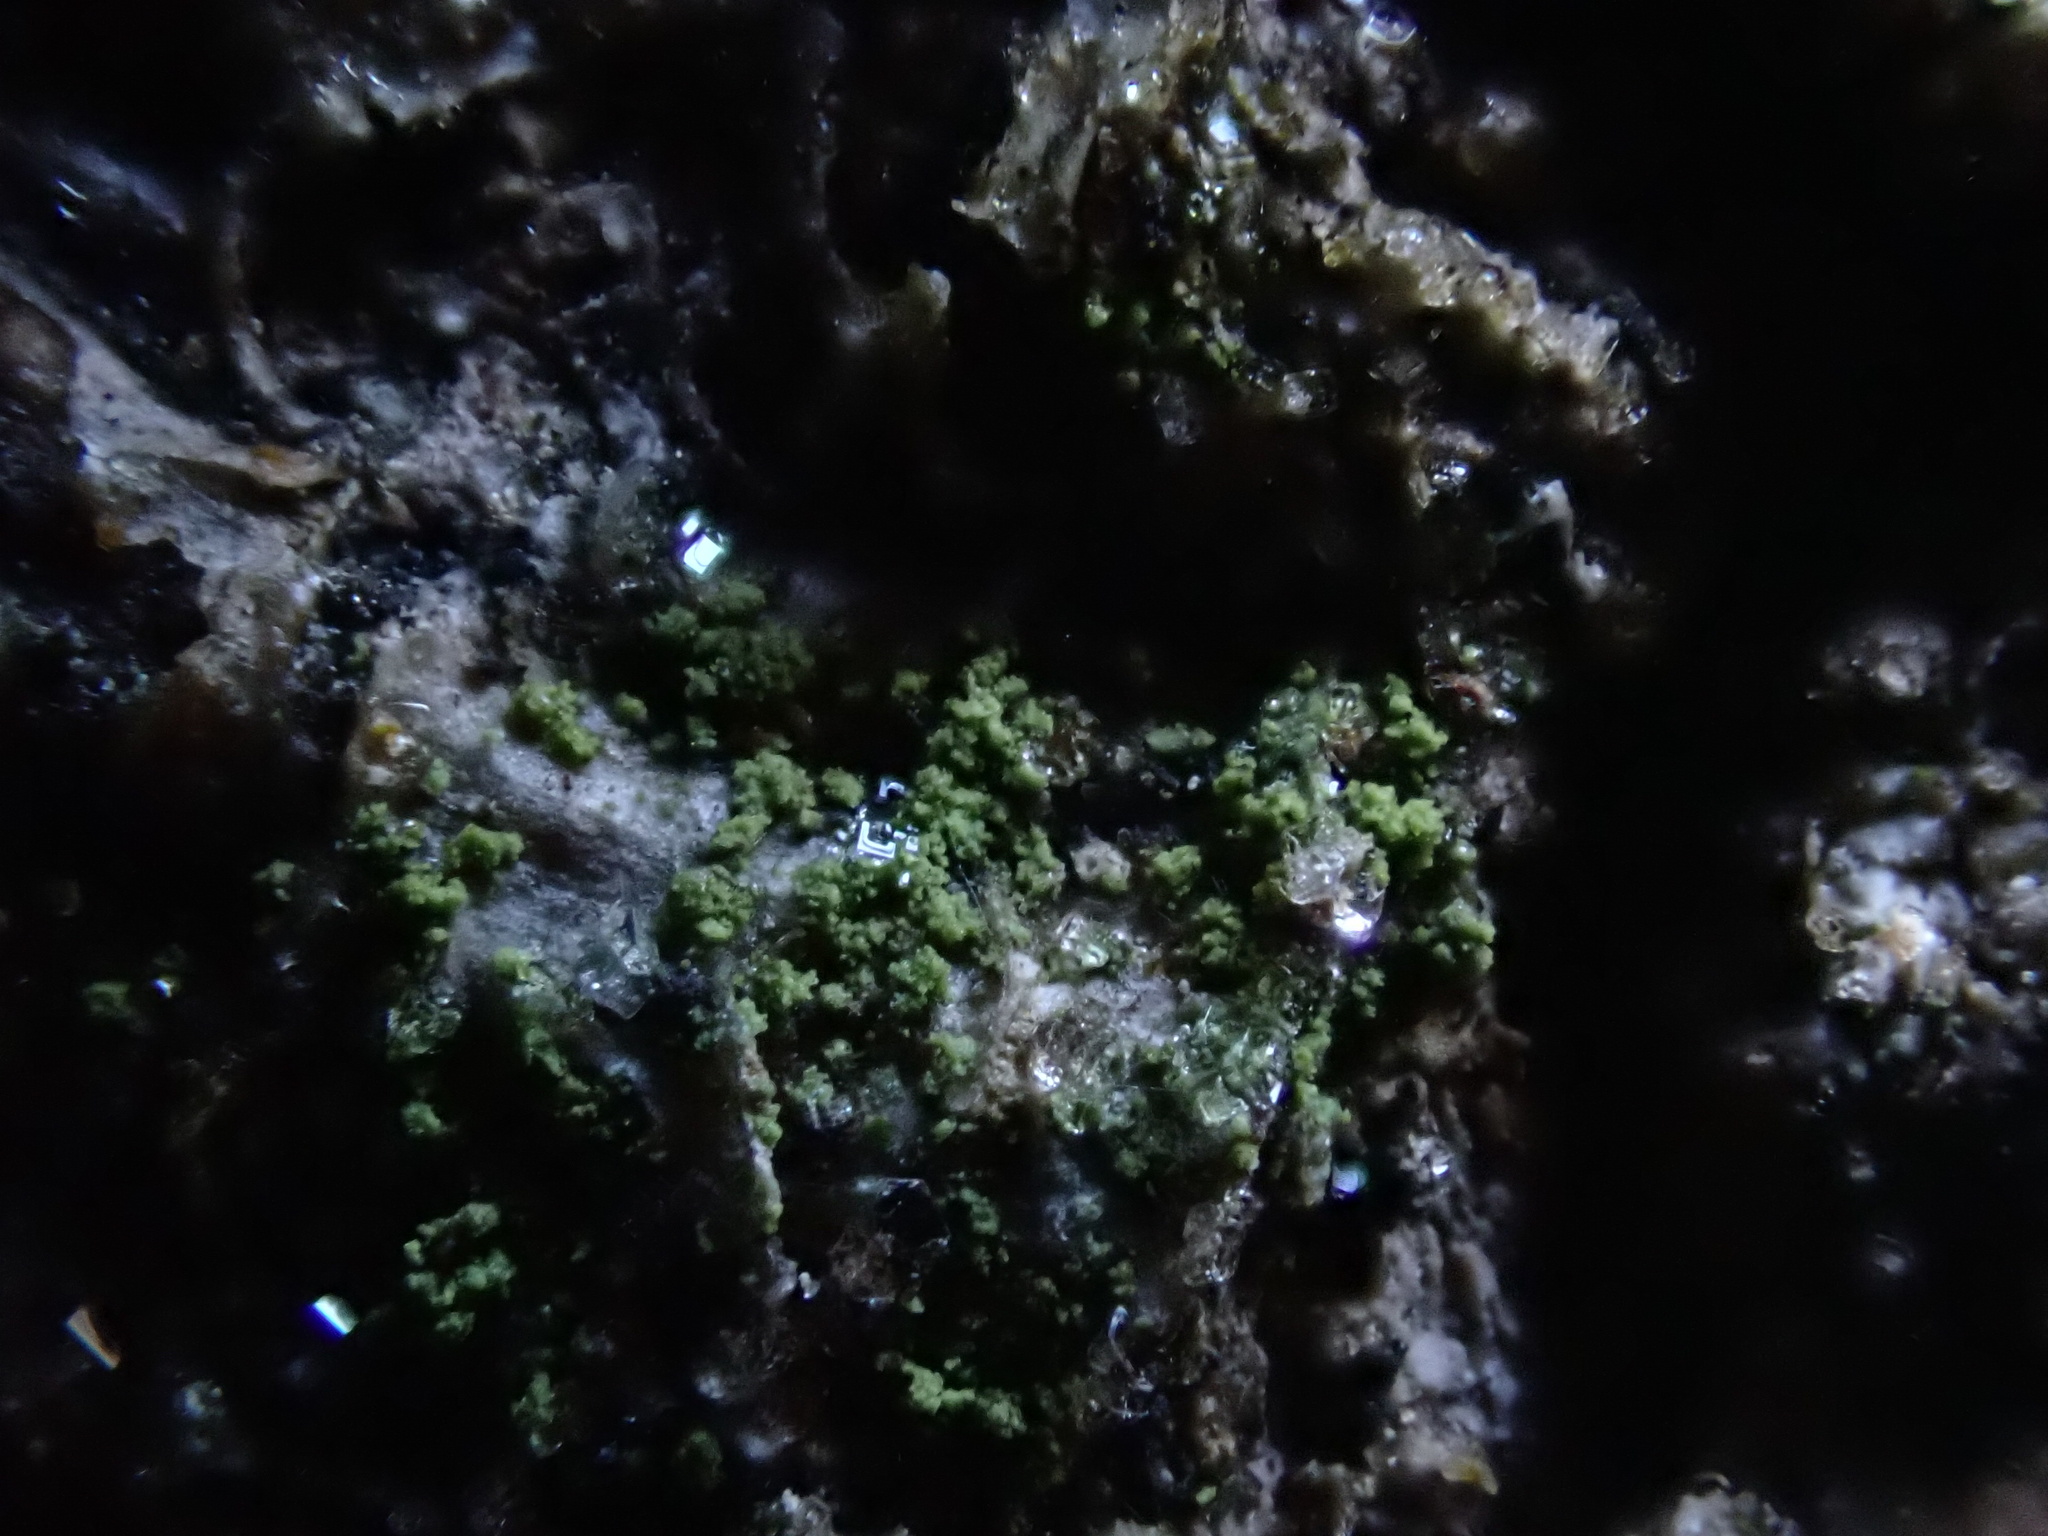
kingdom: Fungi
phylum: Ascomycota
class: Lecanoromycetes
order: Teloschistales
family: Leprocaulaceae
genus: Halecania
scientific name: Halecania viridescens
